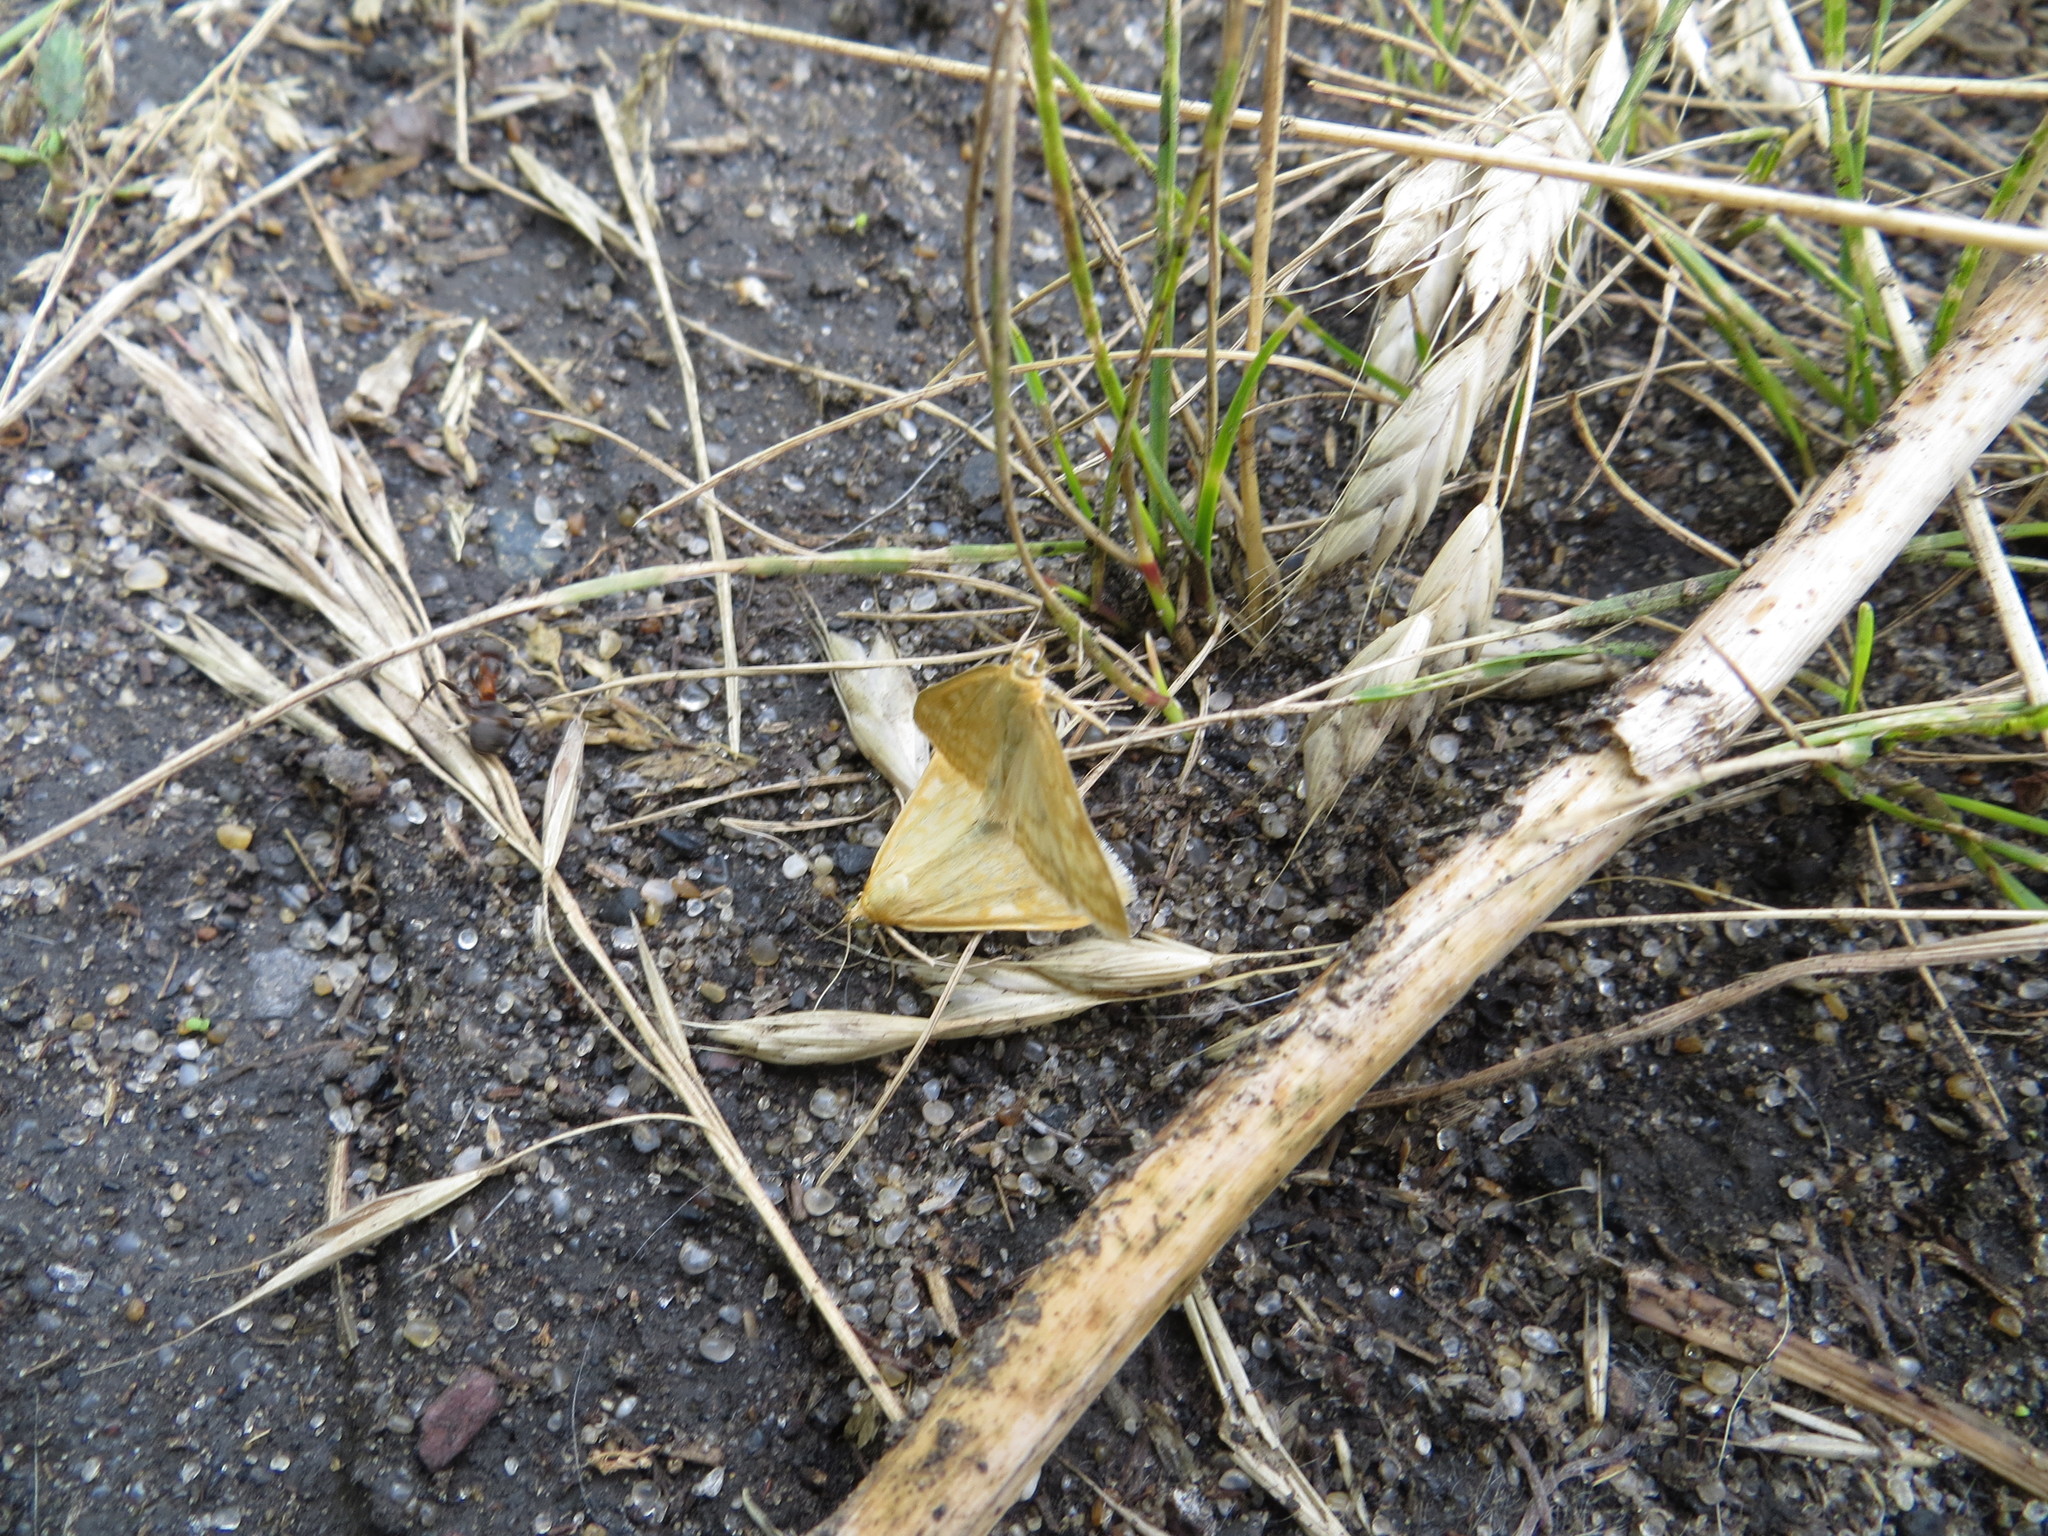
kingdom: Animalia
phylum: Arthropoda
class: Insecta
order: Lepidoptera
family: Crambidae
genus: Sitochroa
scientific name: Sitochroa verticalis
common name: Lesser pearl
